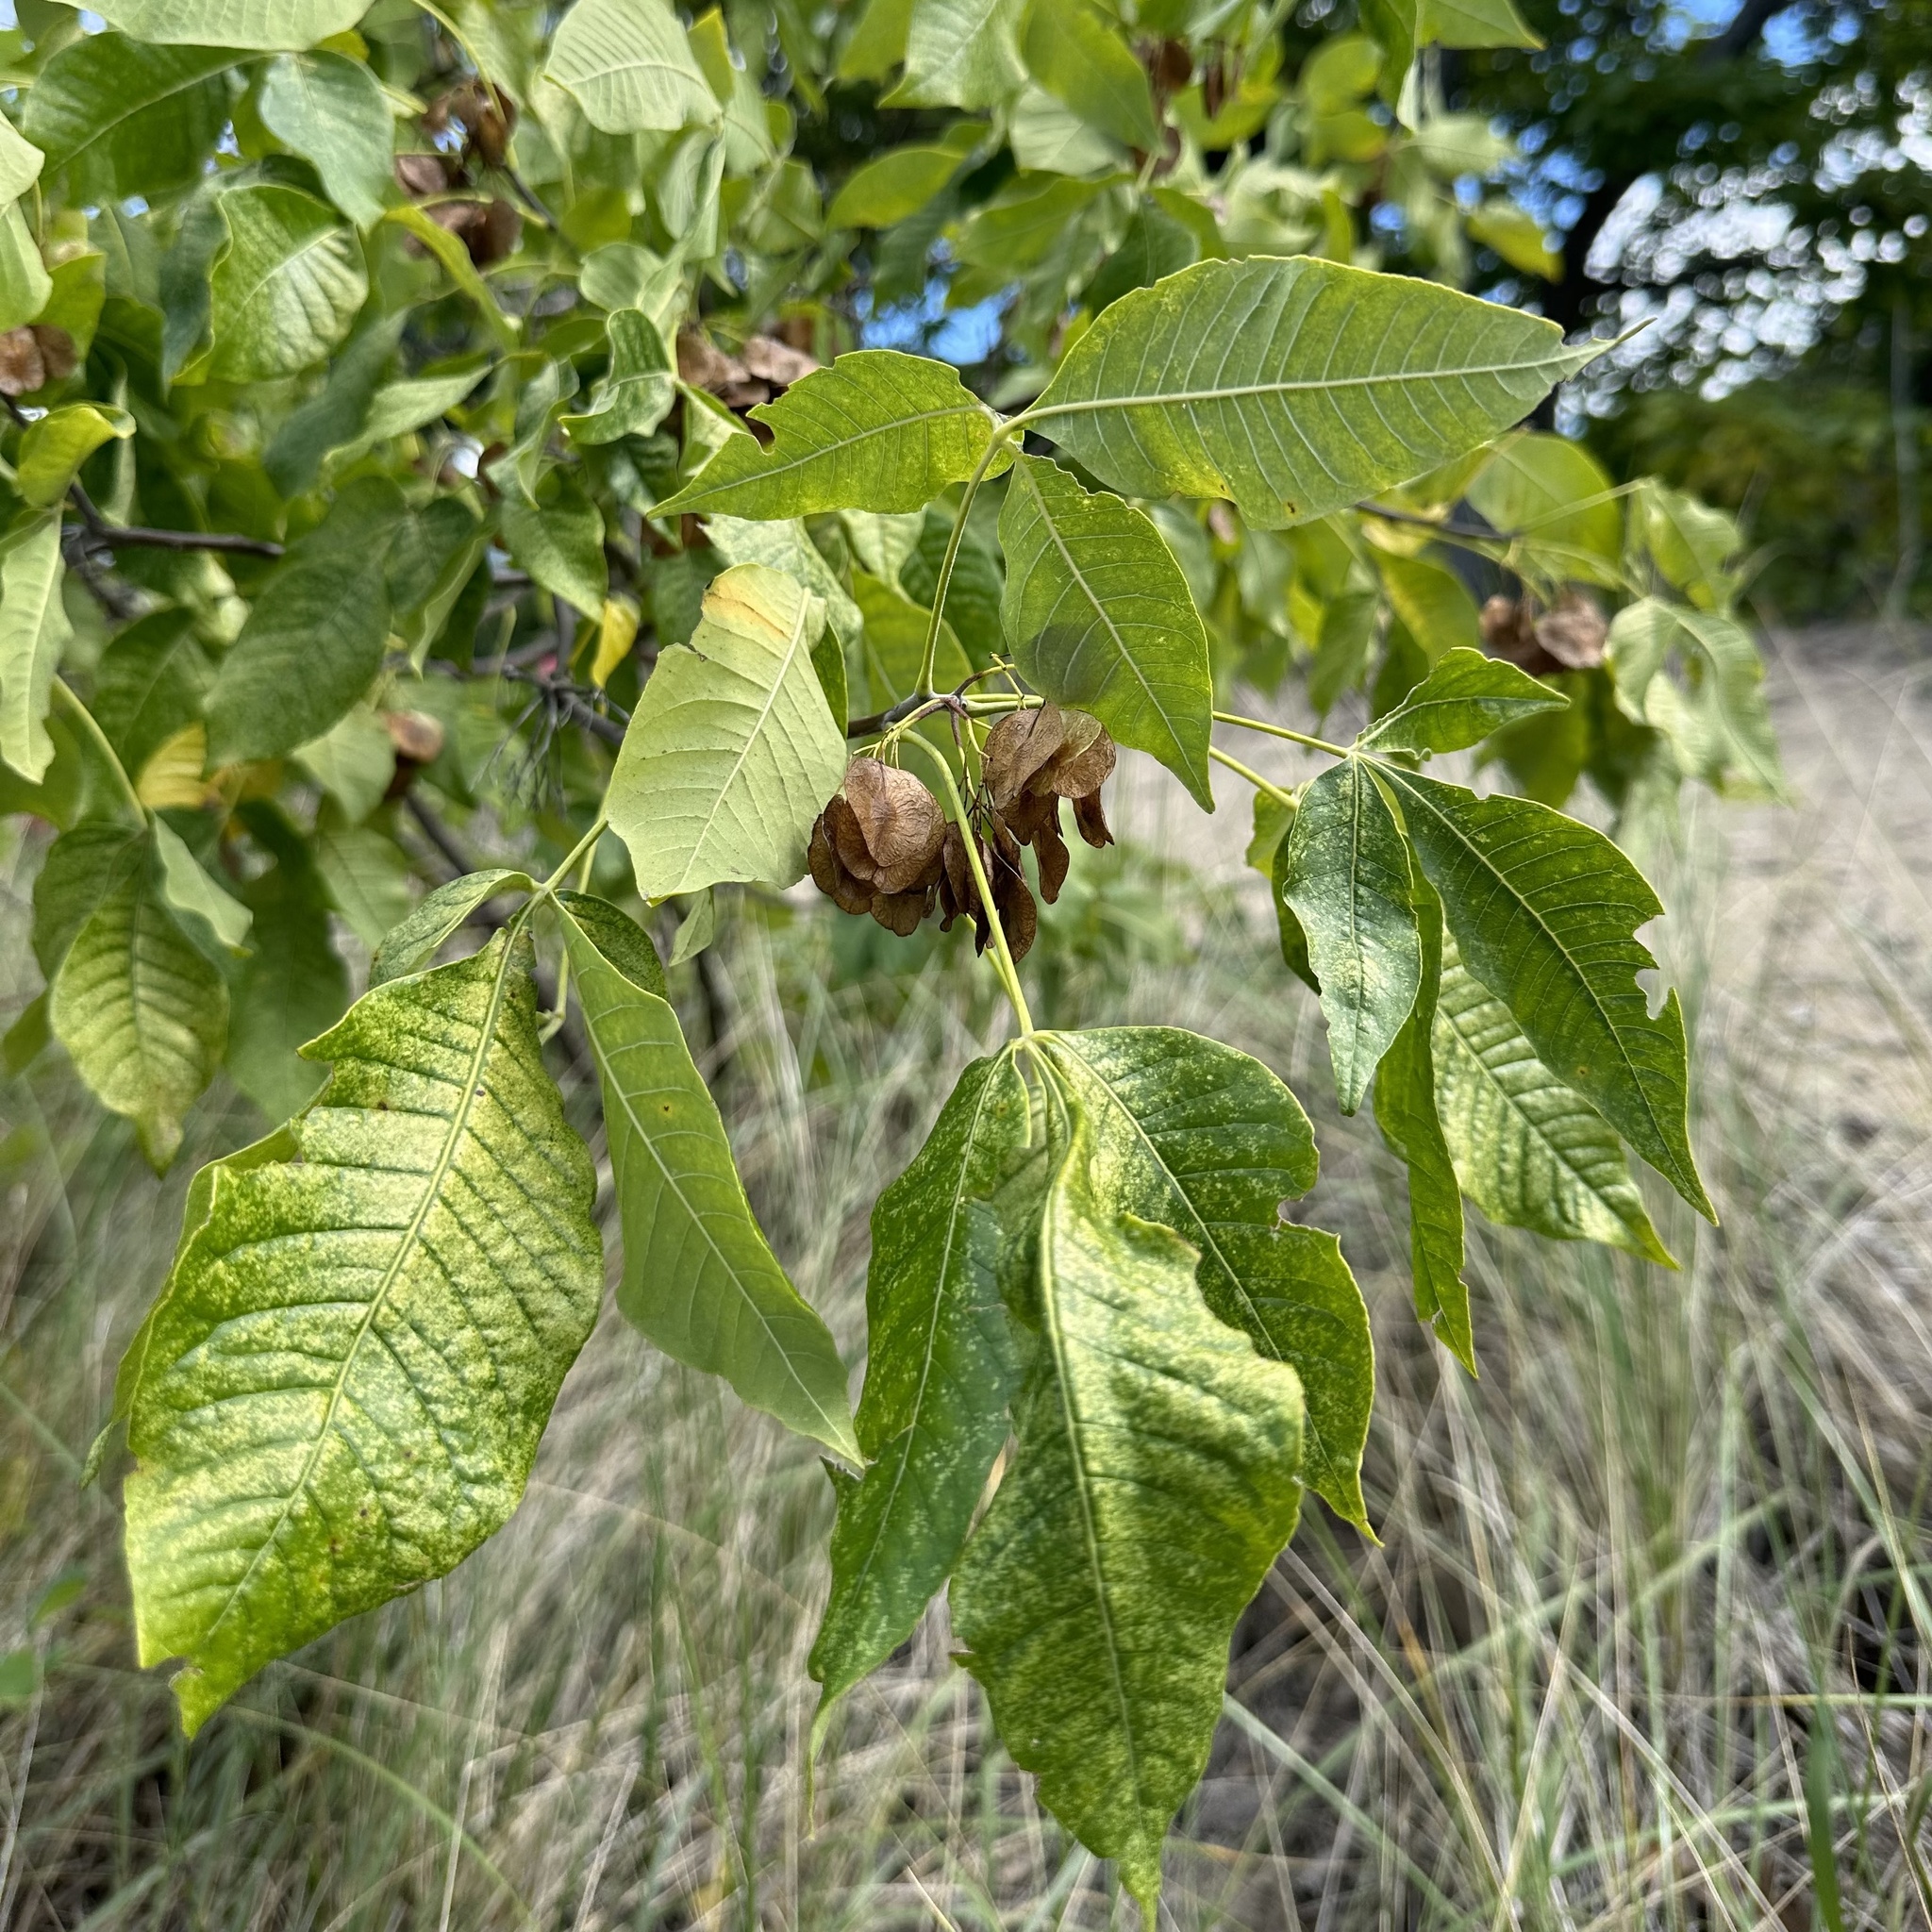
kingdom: Plantae
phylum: Tracheophyta
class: Magnoliopsida
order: Sapindales
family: Rutaceae
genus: Ptelea
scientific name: Ptelea trifoliata
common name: Common hop-tree
